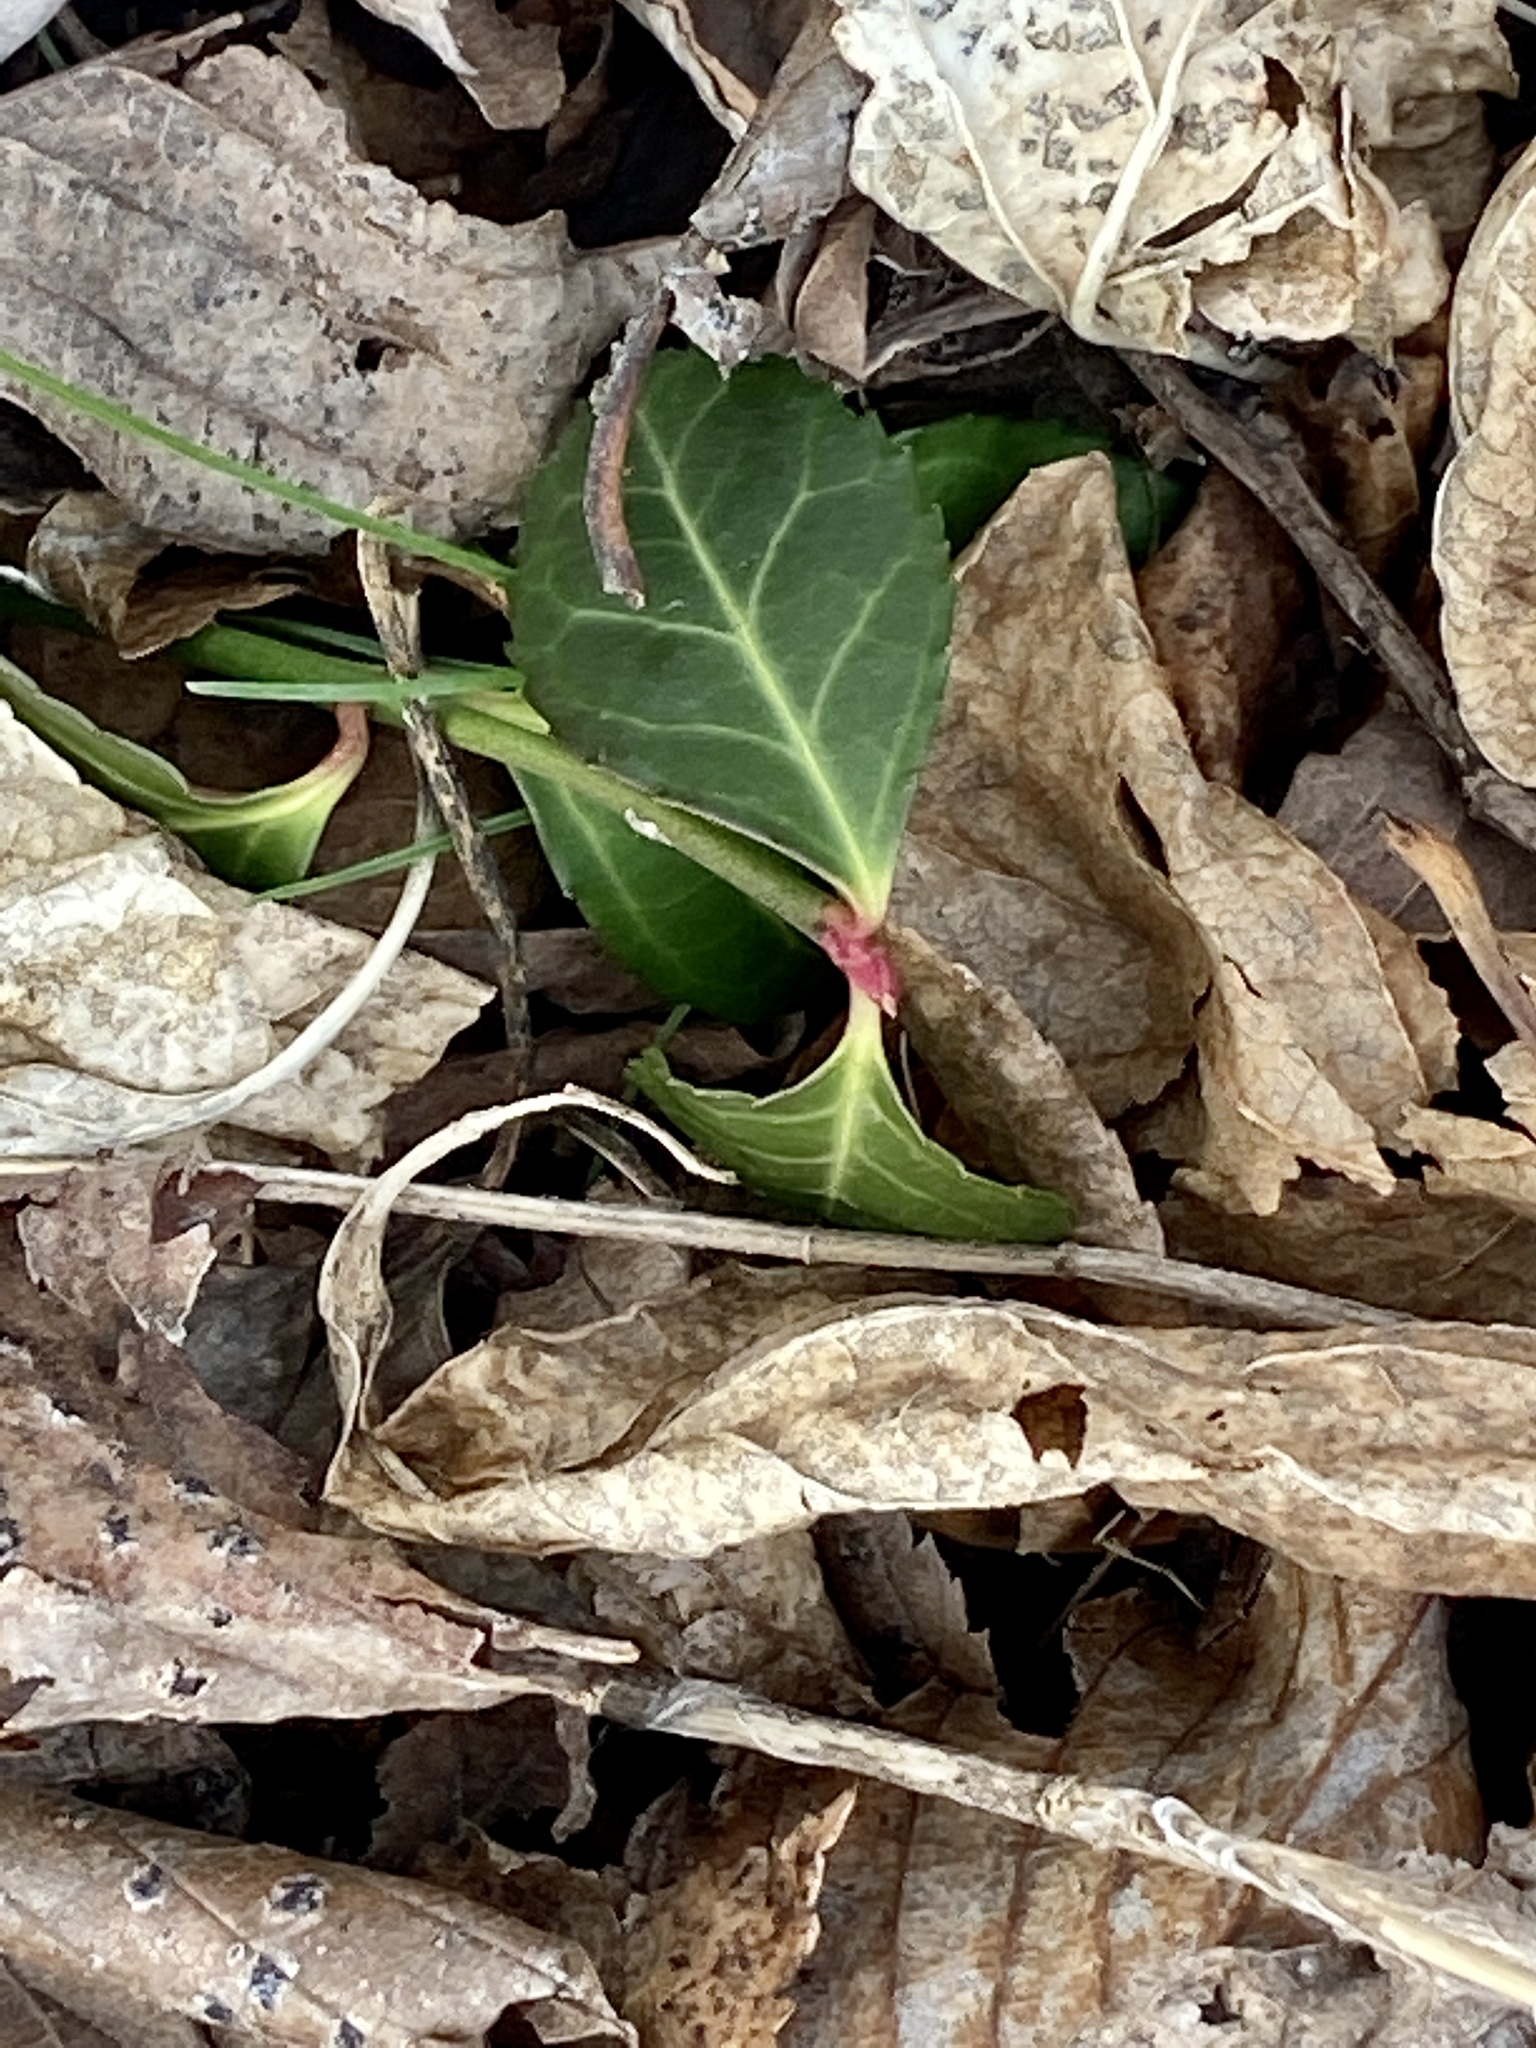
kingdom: Plantae
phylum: Tracheophyta
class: Magnoliopsida
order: Celastrales
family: Celastraceae
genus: Euonymus
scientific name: Euonymus fortunei
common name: Climbing euonymus
